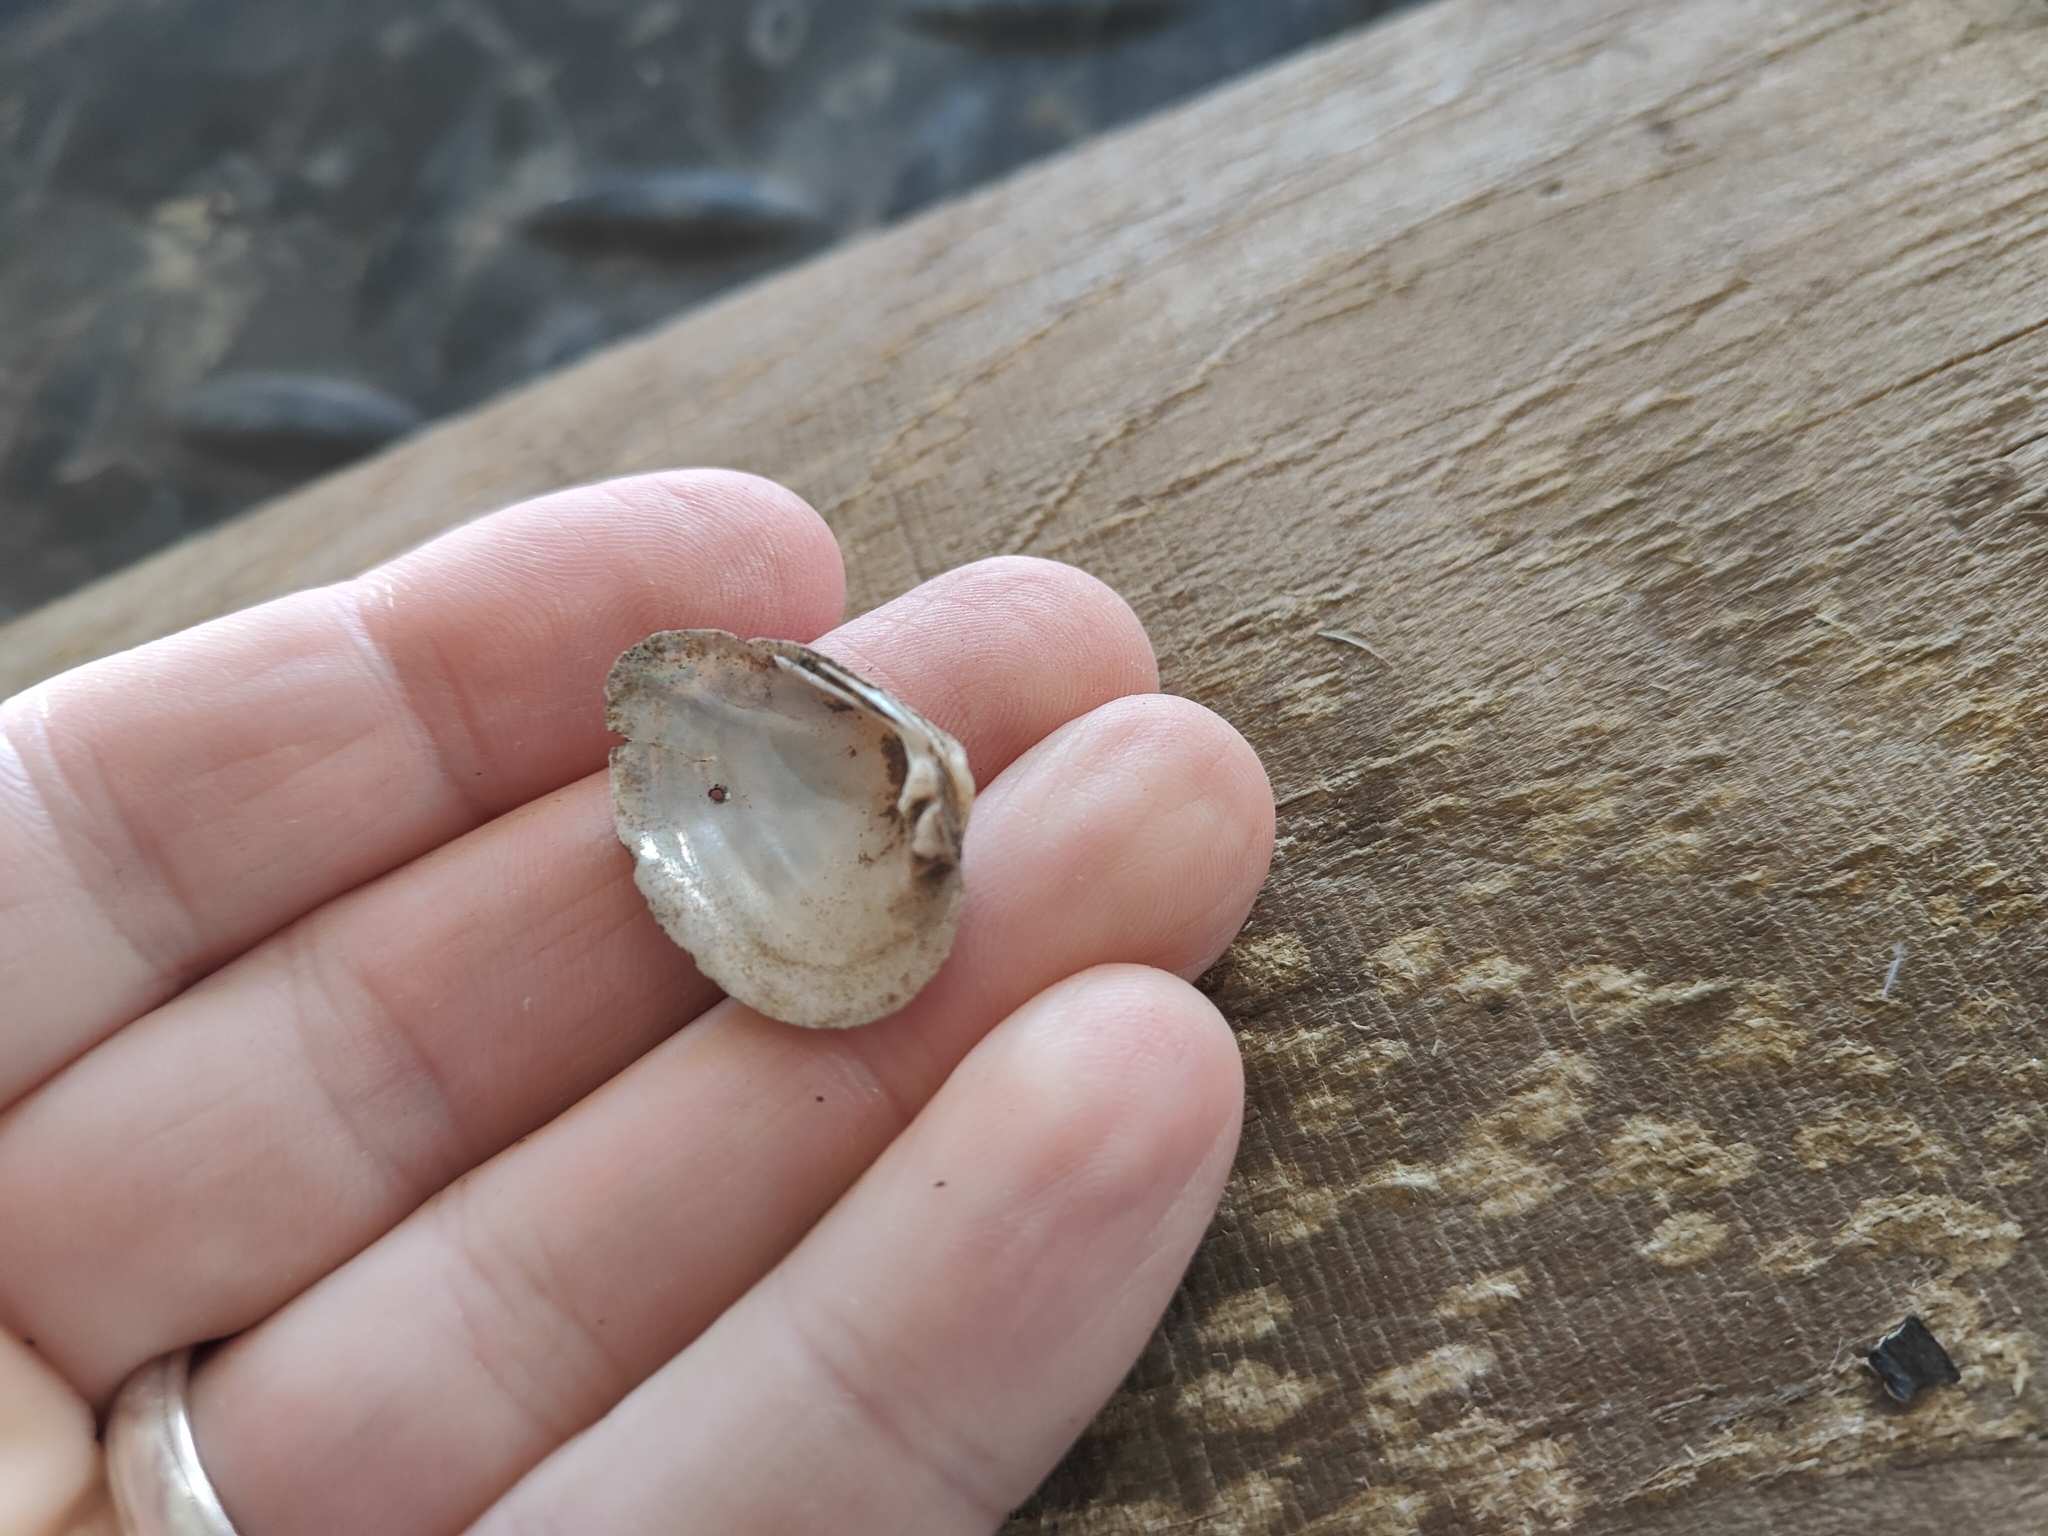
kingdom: Animalia
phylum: Mollusca
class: Bivalvia
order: Unionida
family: Unionidae
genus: Truncilla
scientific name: Truncilla truncata
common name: Deertoe
